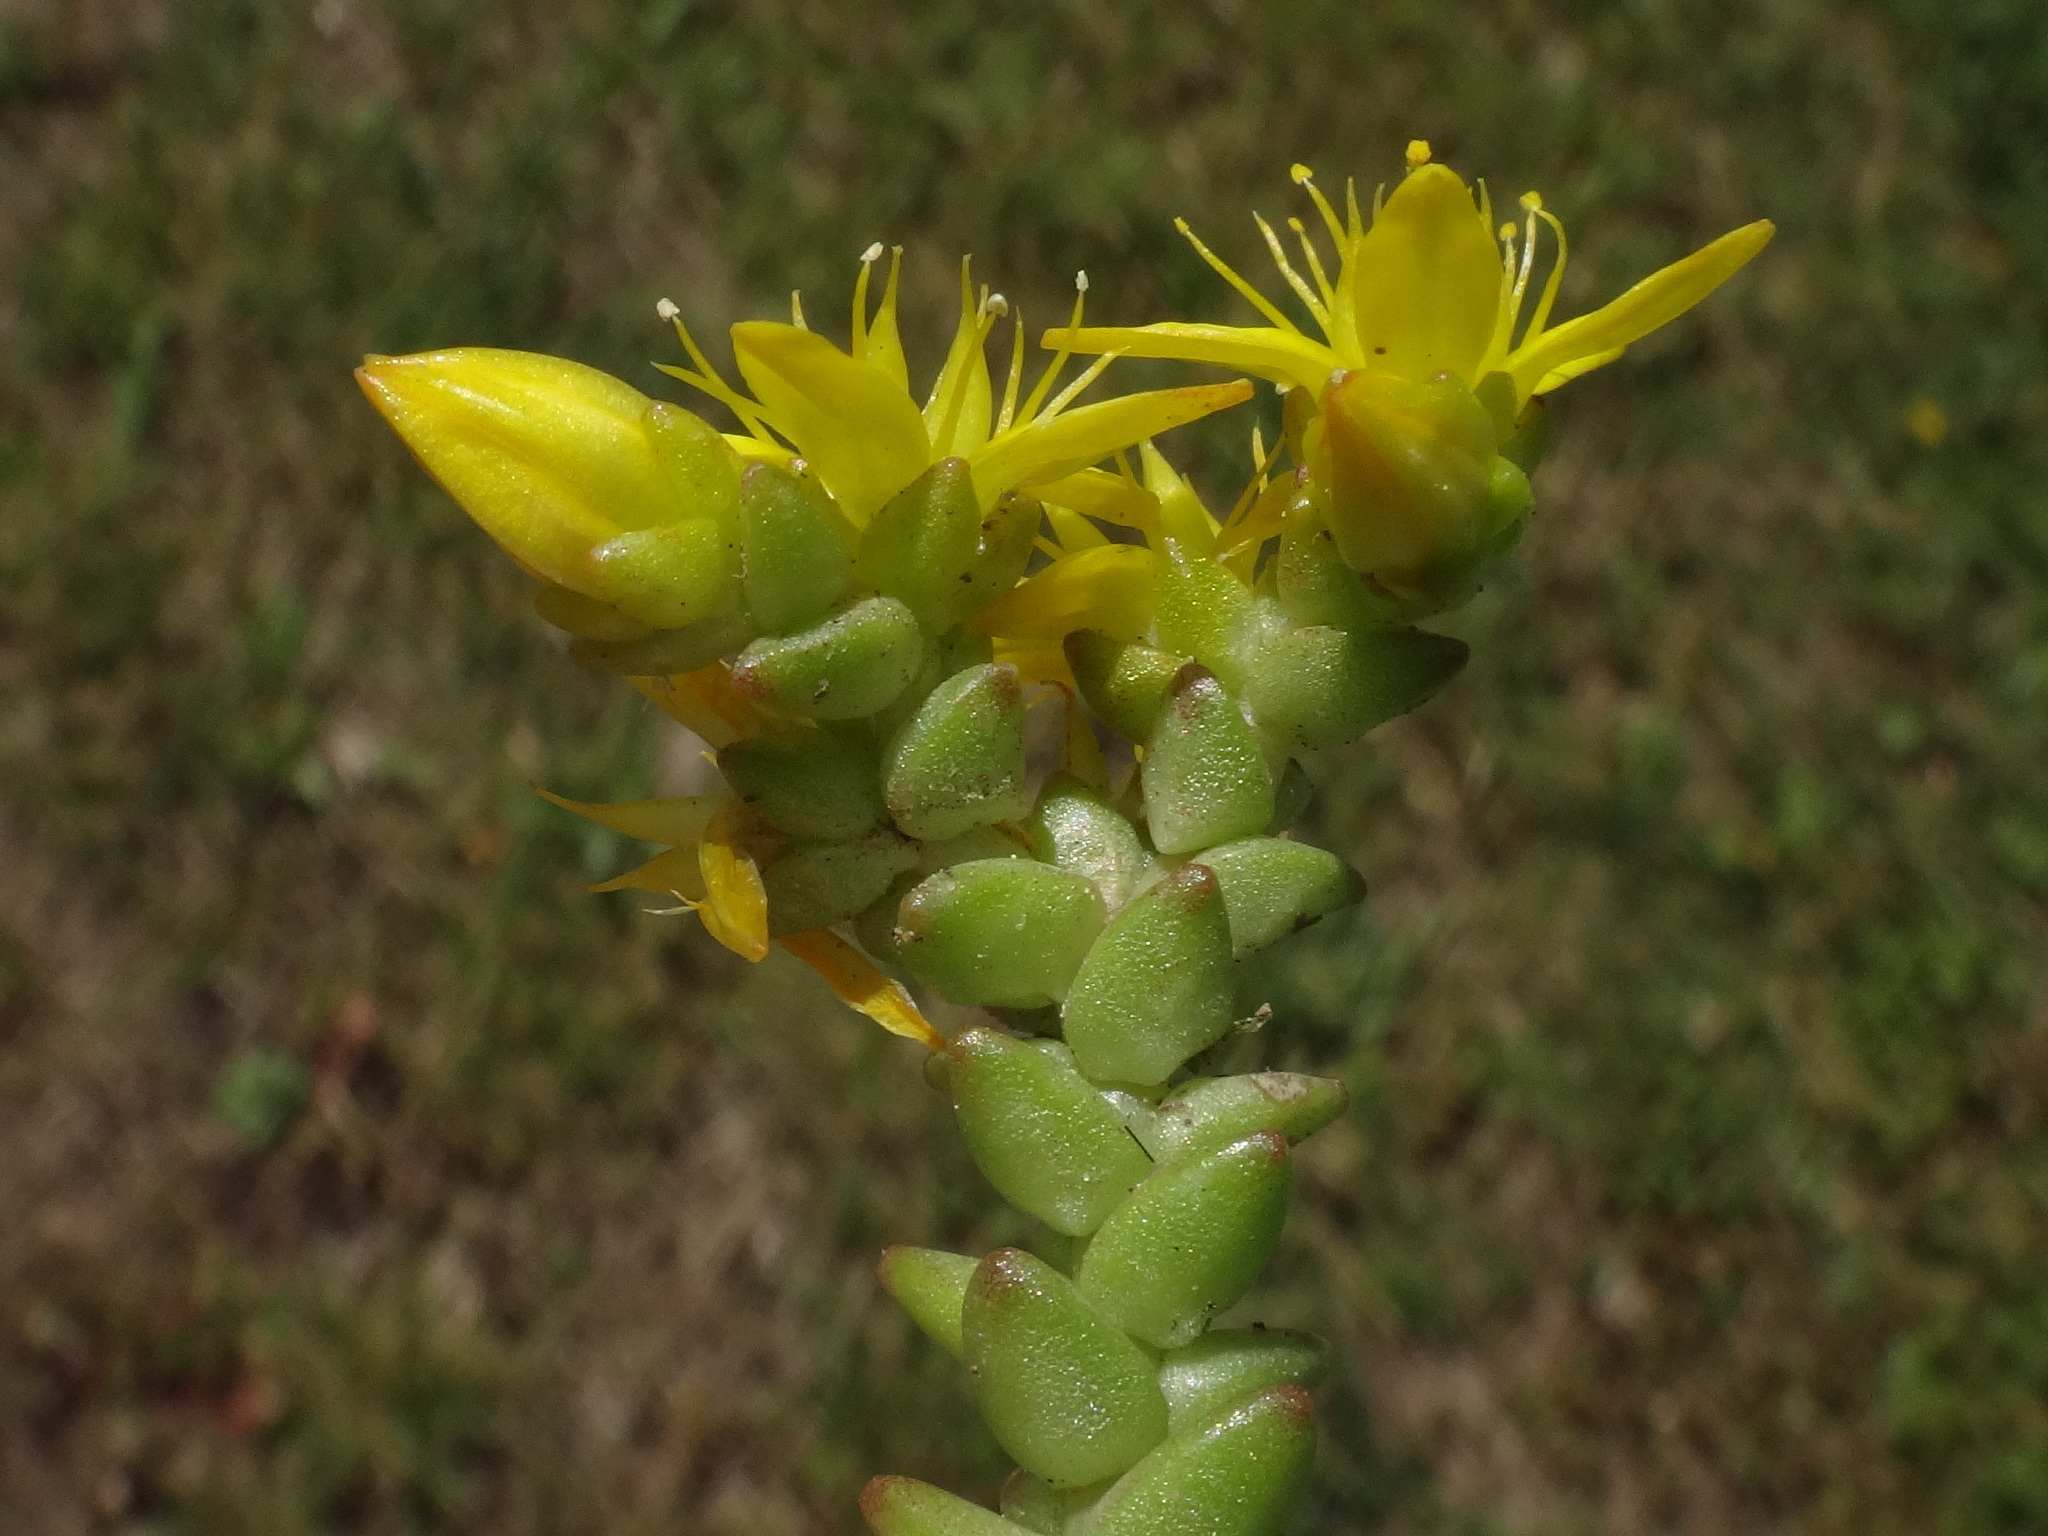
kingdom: Plantae
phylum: Tracheophyta
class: Magnoliopsida
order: Saxifragales
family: Crassulaceae
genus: Sedum
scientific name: Sedum acre
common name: Biting stonecrop
